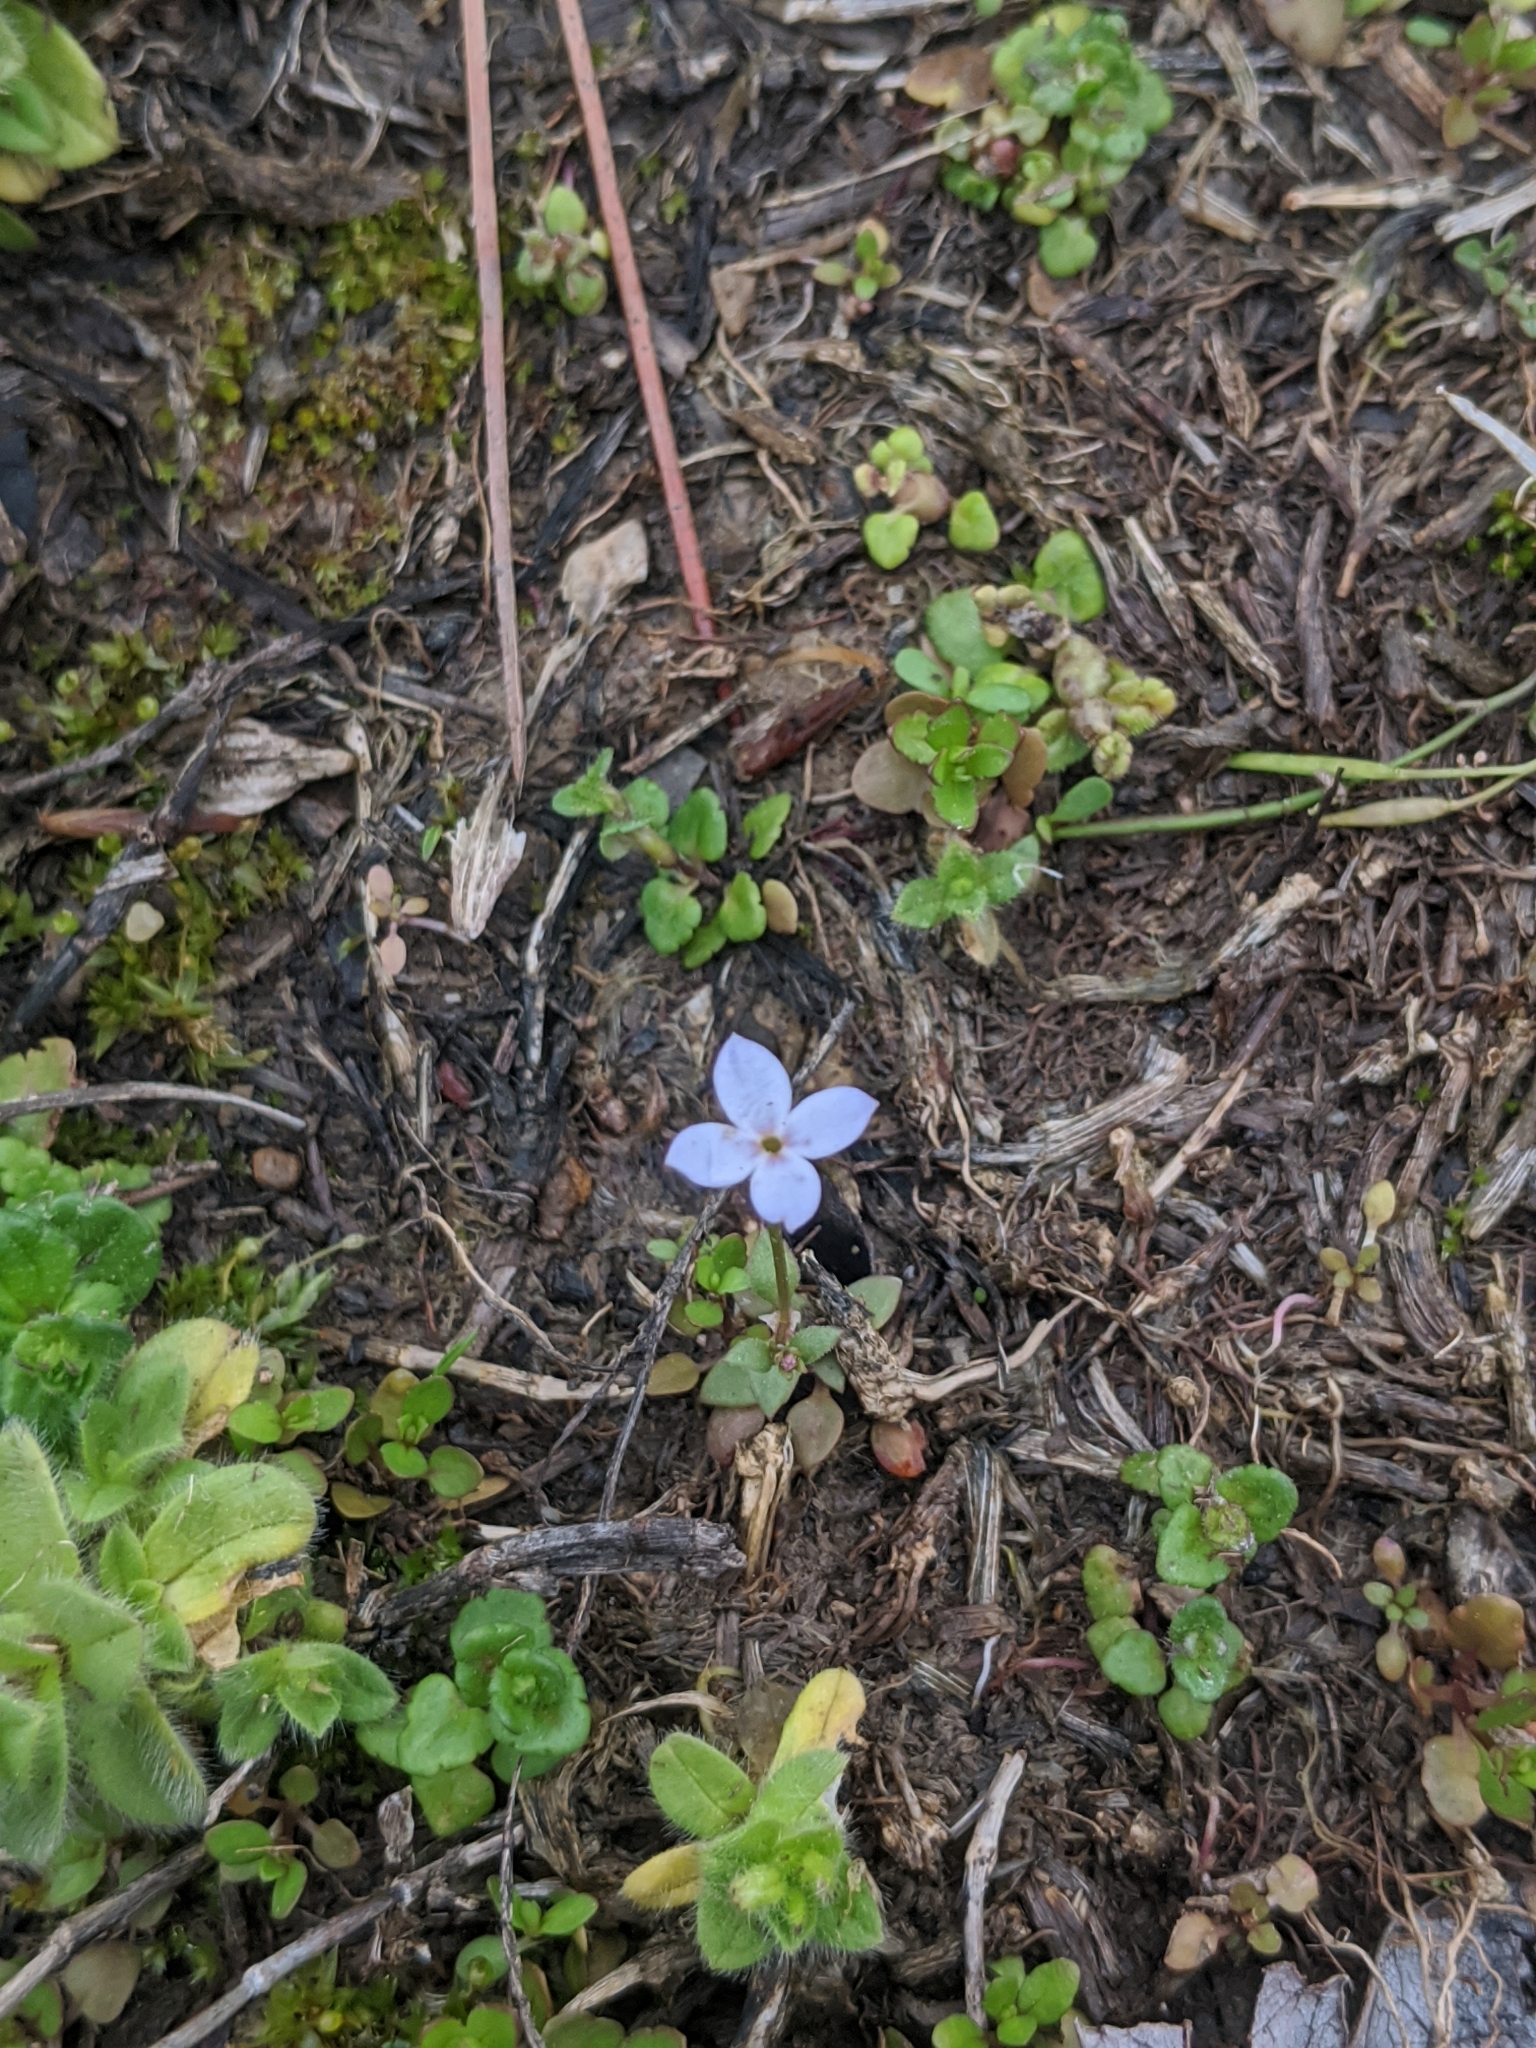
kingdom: Plantae
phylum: Tracheophyta
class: Magnoliopsida
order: Gentianales
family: Rubiaceae
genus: Houstonia
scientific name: Houstonia pusilla
